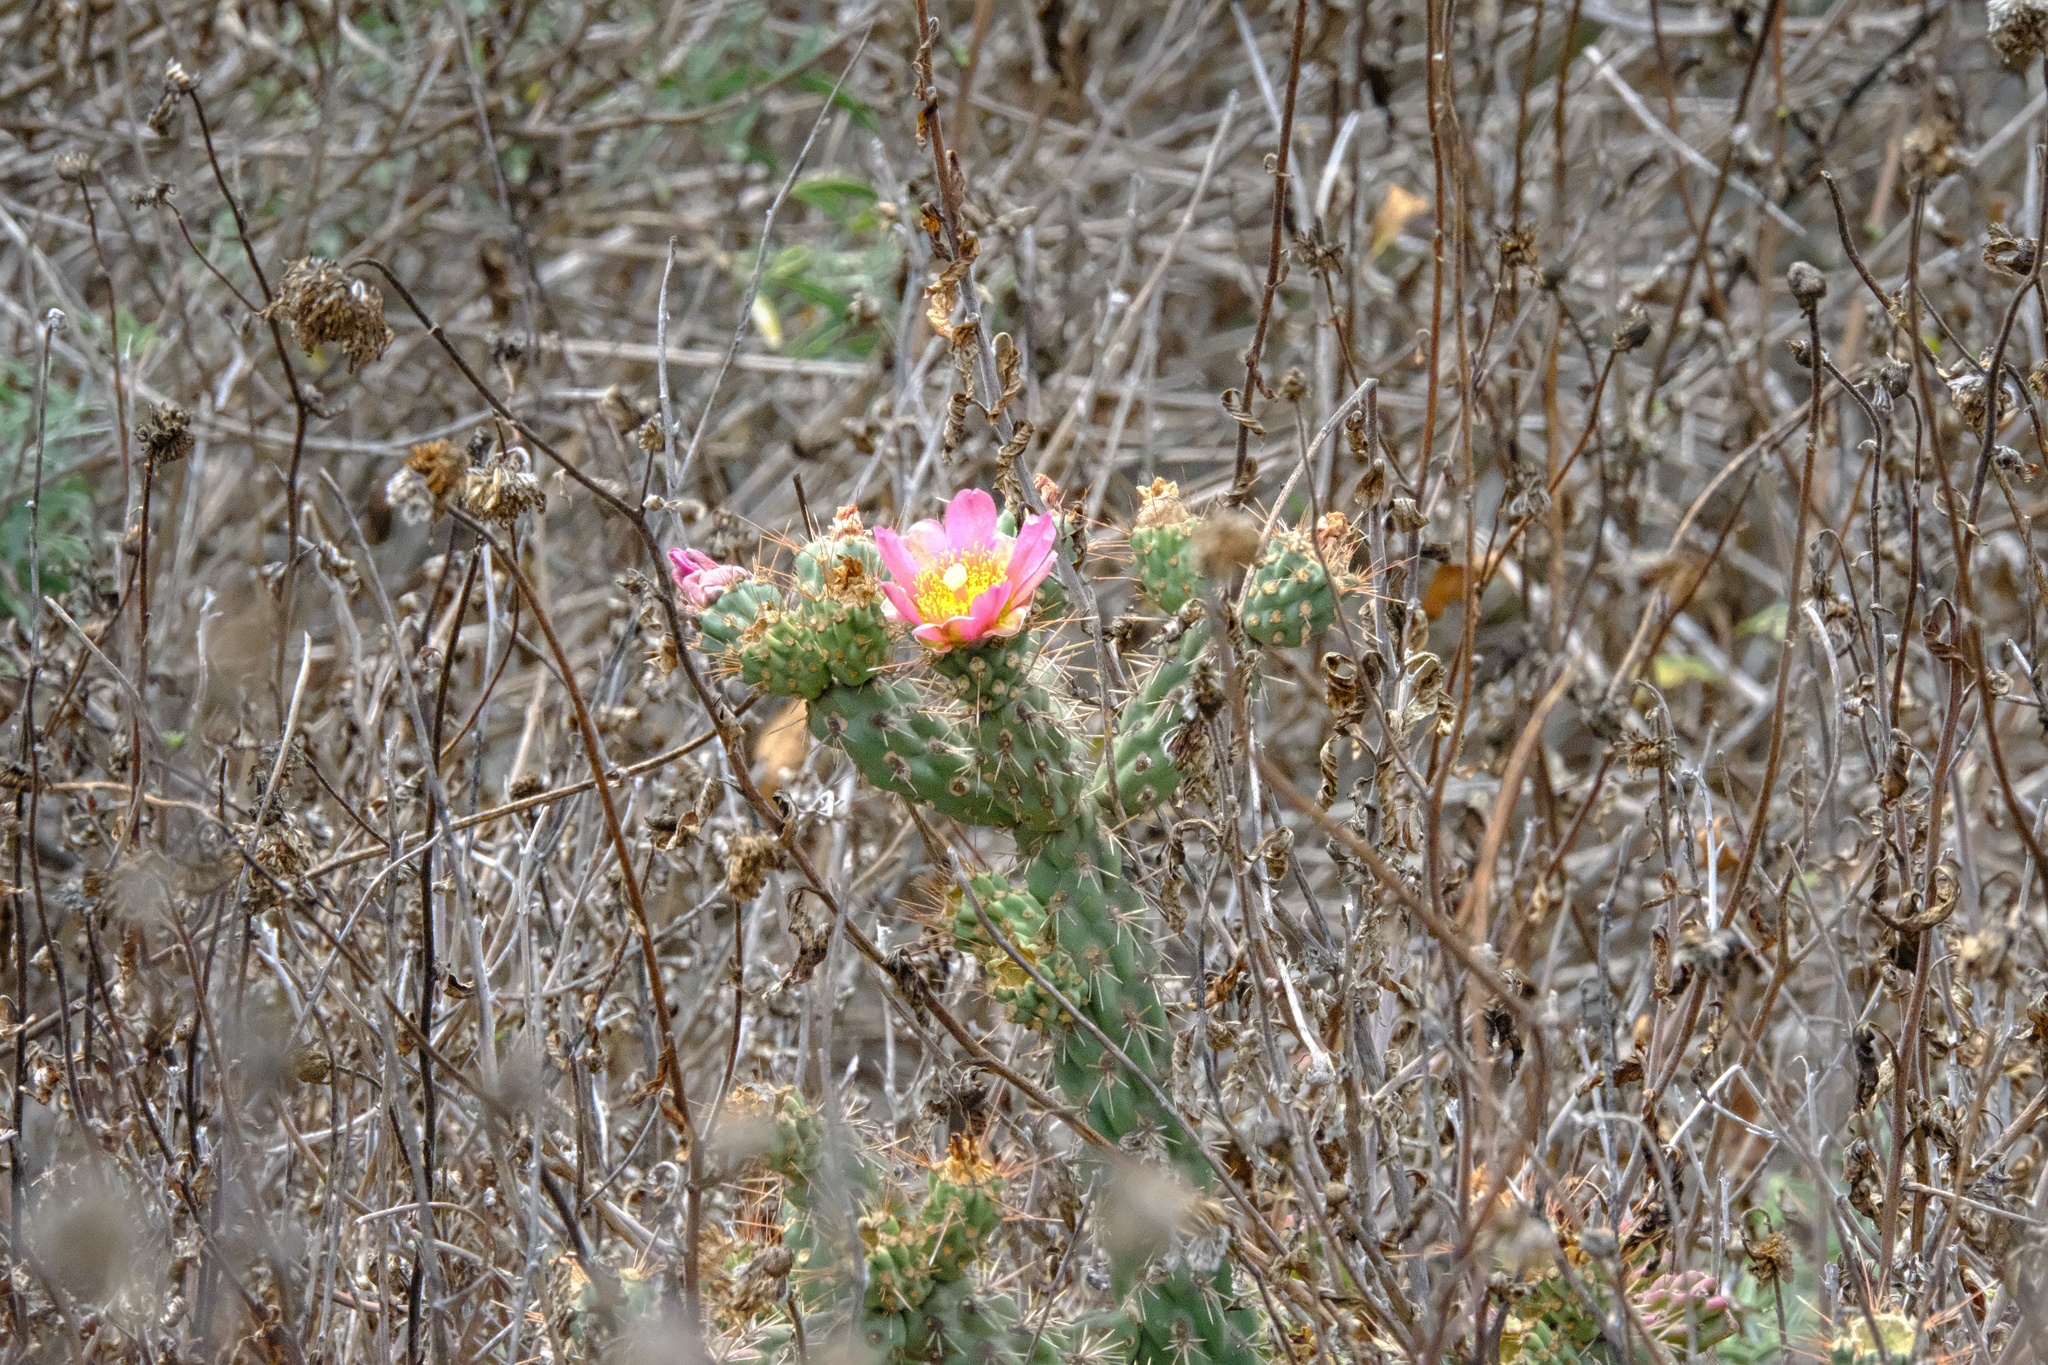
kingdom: Plantae
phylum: Tracheophyta
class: Magnoliopsida
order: Caryophyllales
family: Cactaceae
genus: Cylindropuntia
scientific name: Cylindropuntia prolifera
